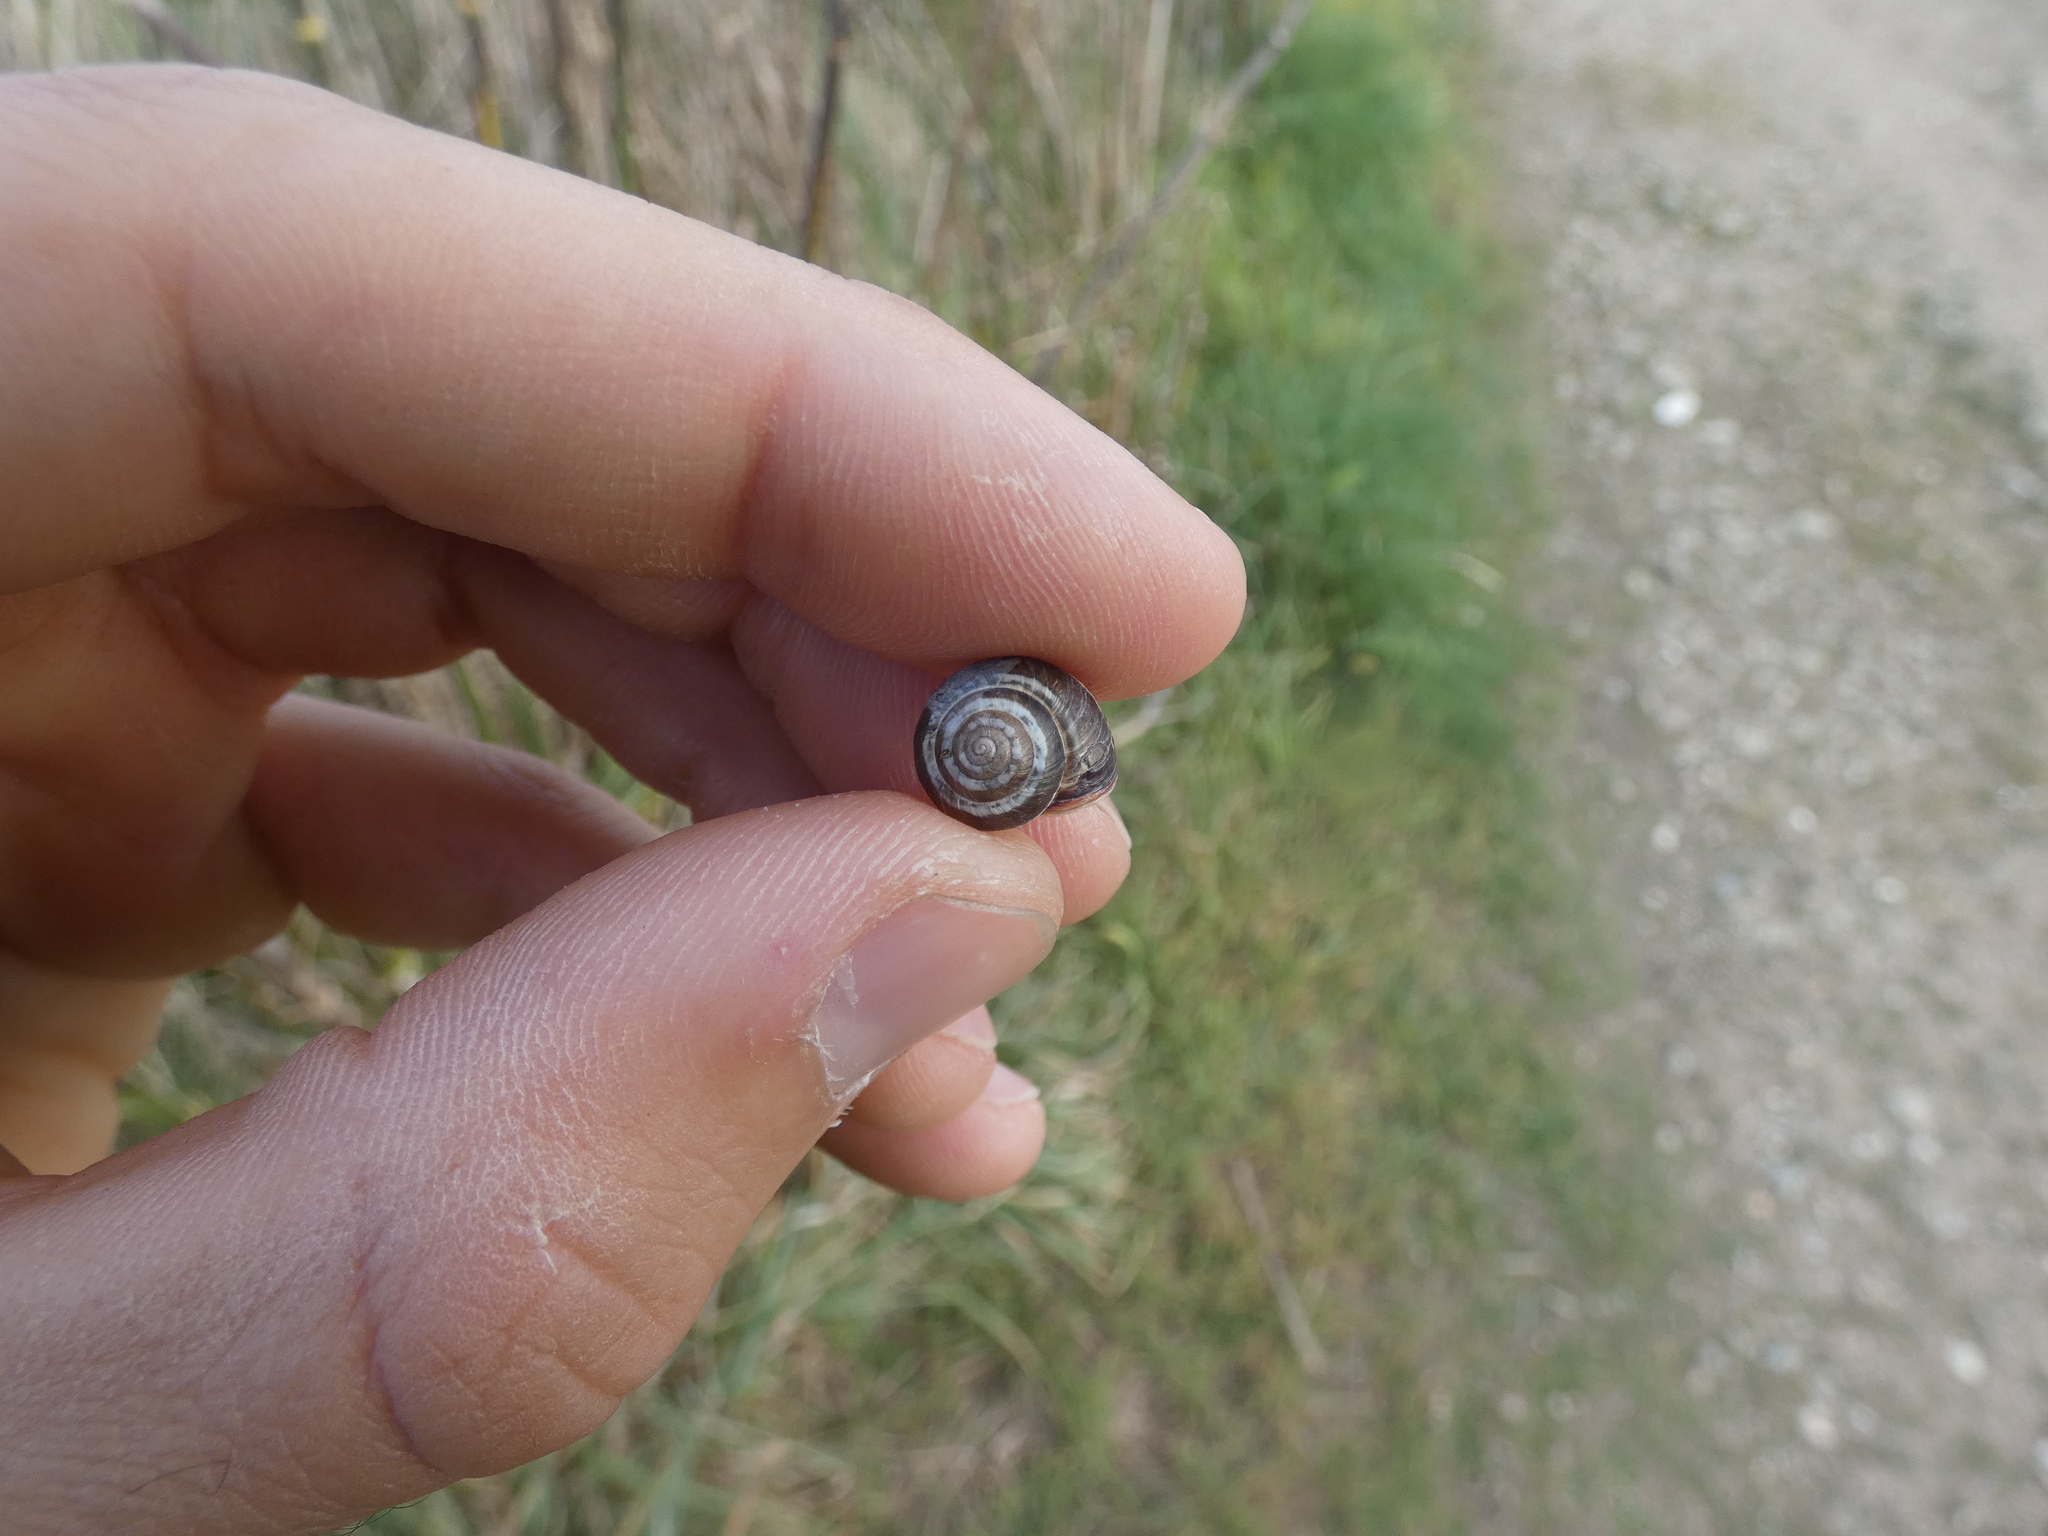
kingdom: Animalia
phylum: Mollusca
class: Gastropoda
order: Stylommatophora
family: Geomitridae
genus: Cernuella
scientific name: Cernuella virgata
